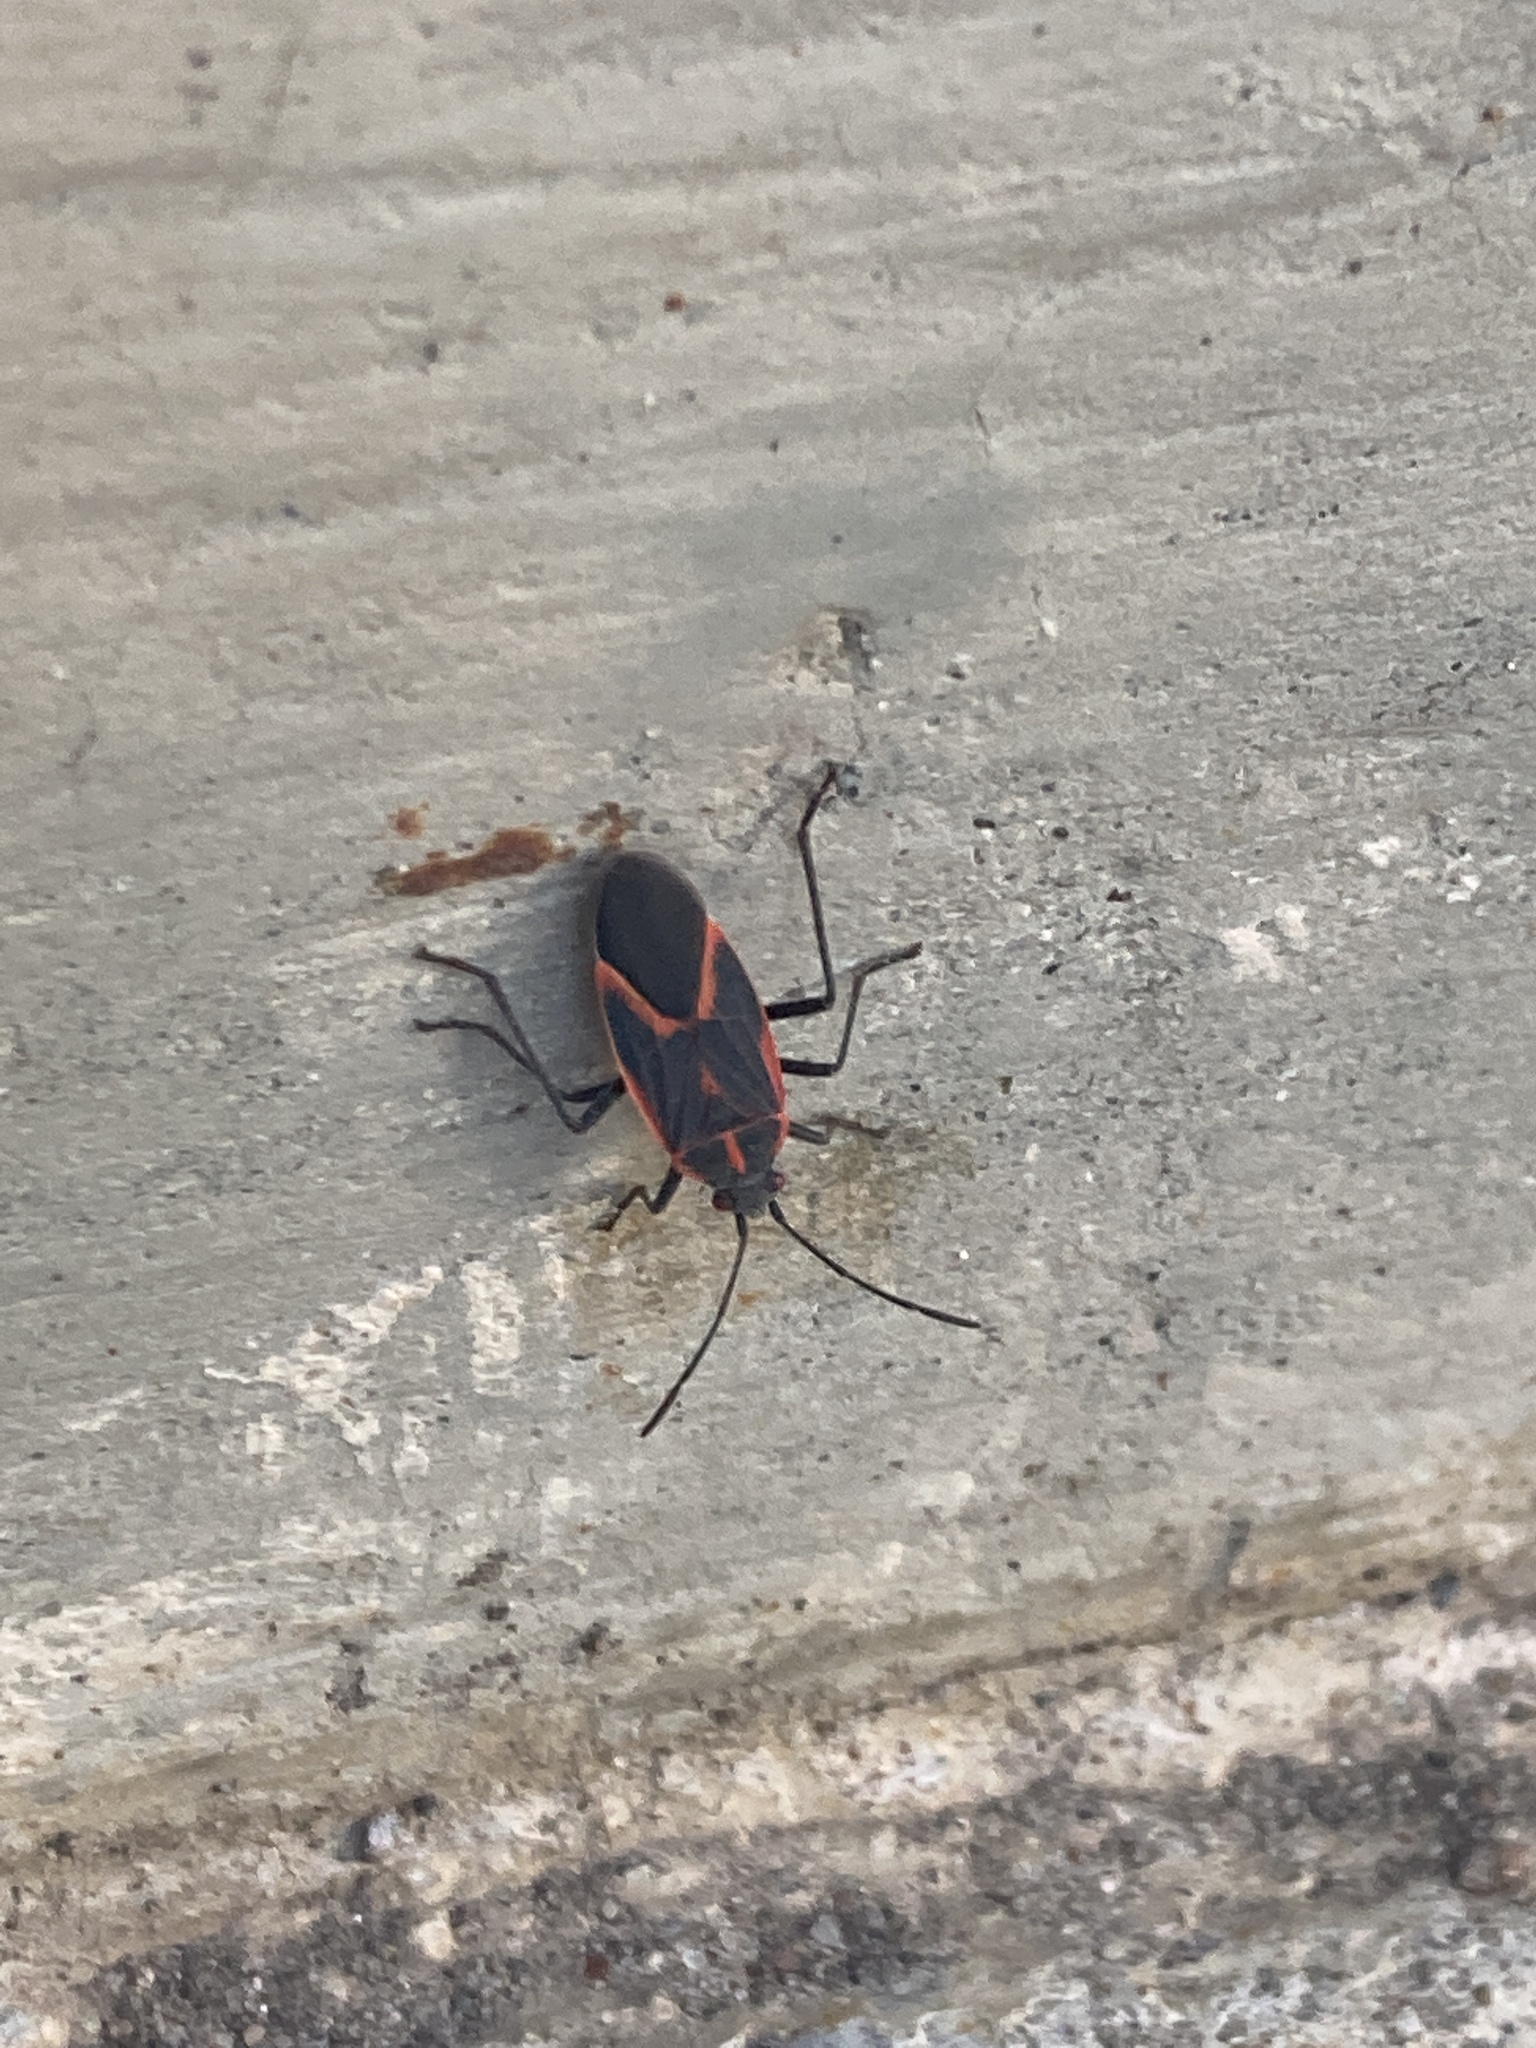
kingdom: Animalia
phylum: Arthropoda
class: Insecta
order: Hemiptera
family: Rhopalidae
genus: Boisea
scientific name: Boisea trivittata
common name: Boxelder bug
